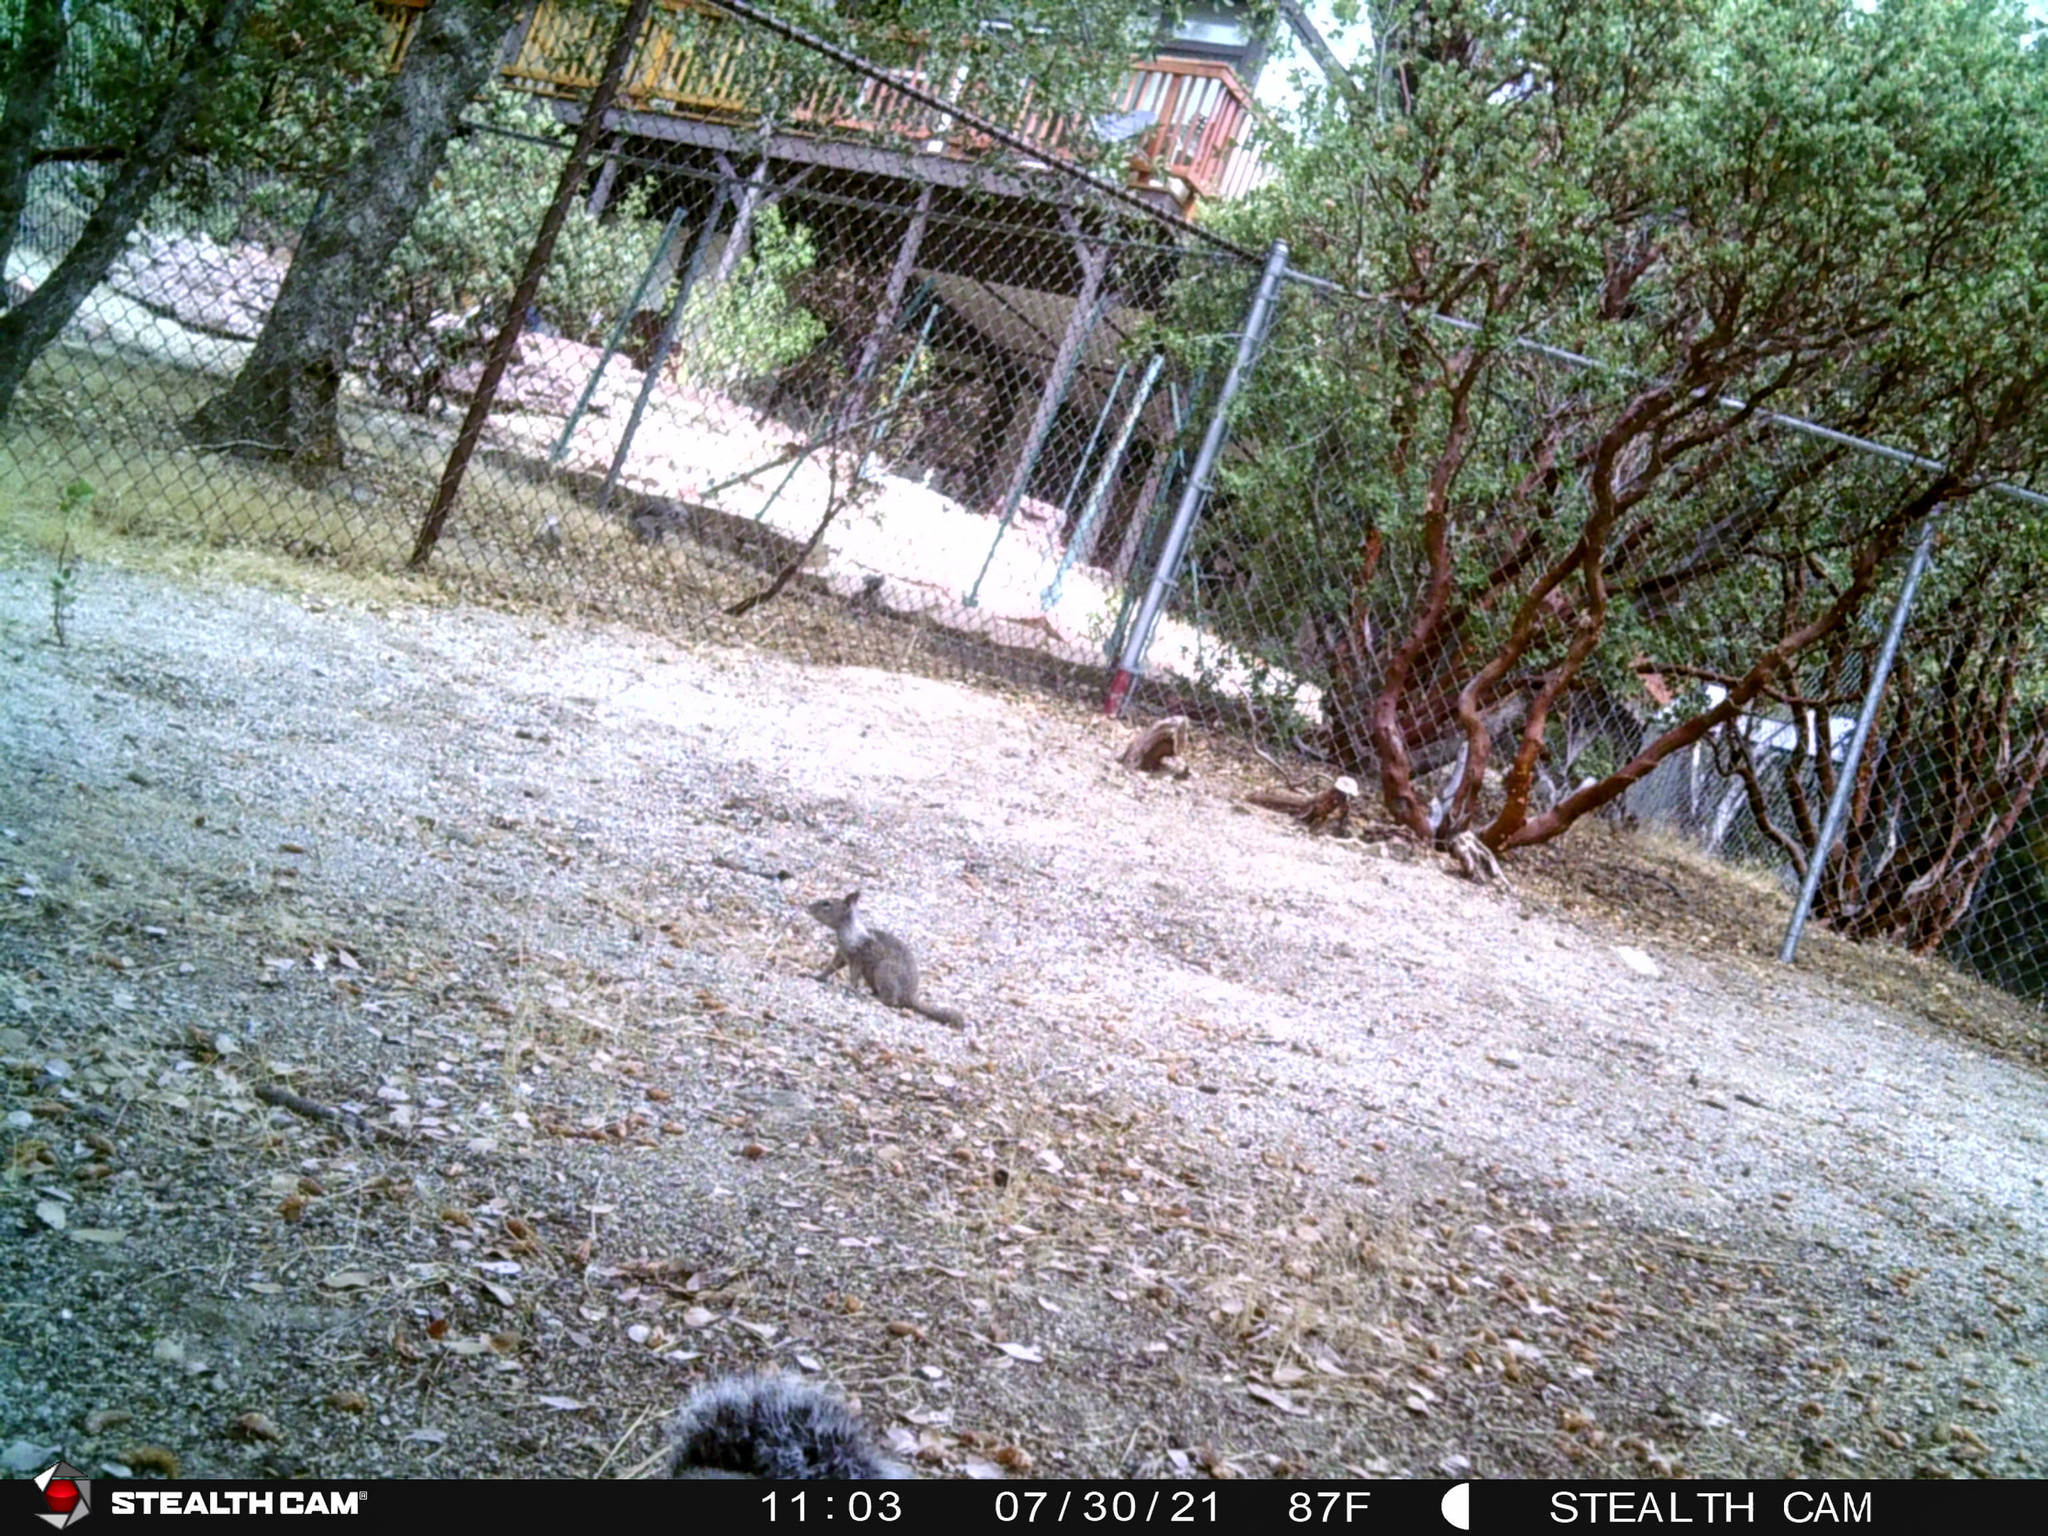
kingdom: Animalia
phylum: Chordata
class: Mammalia
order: Rodentia
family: Sciuridae
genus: Otospermophilus
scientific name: Otospermophilus beecheyi
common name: California ground squirrel
